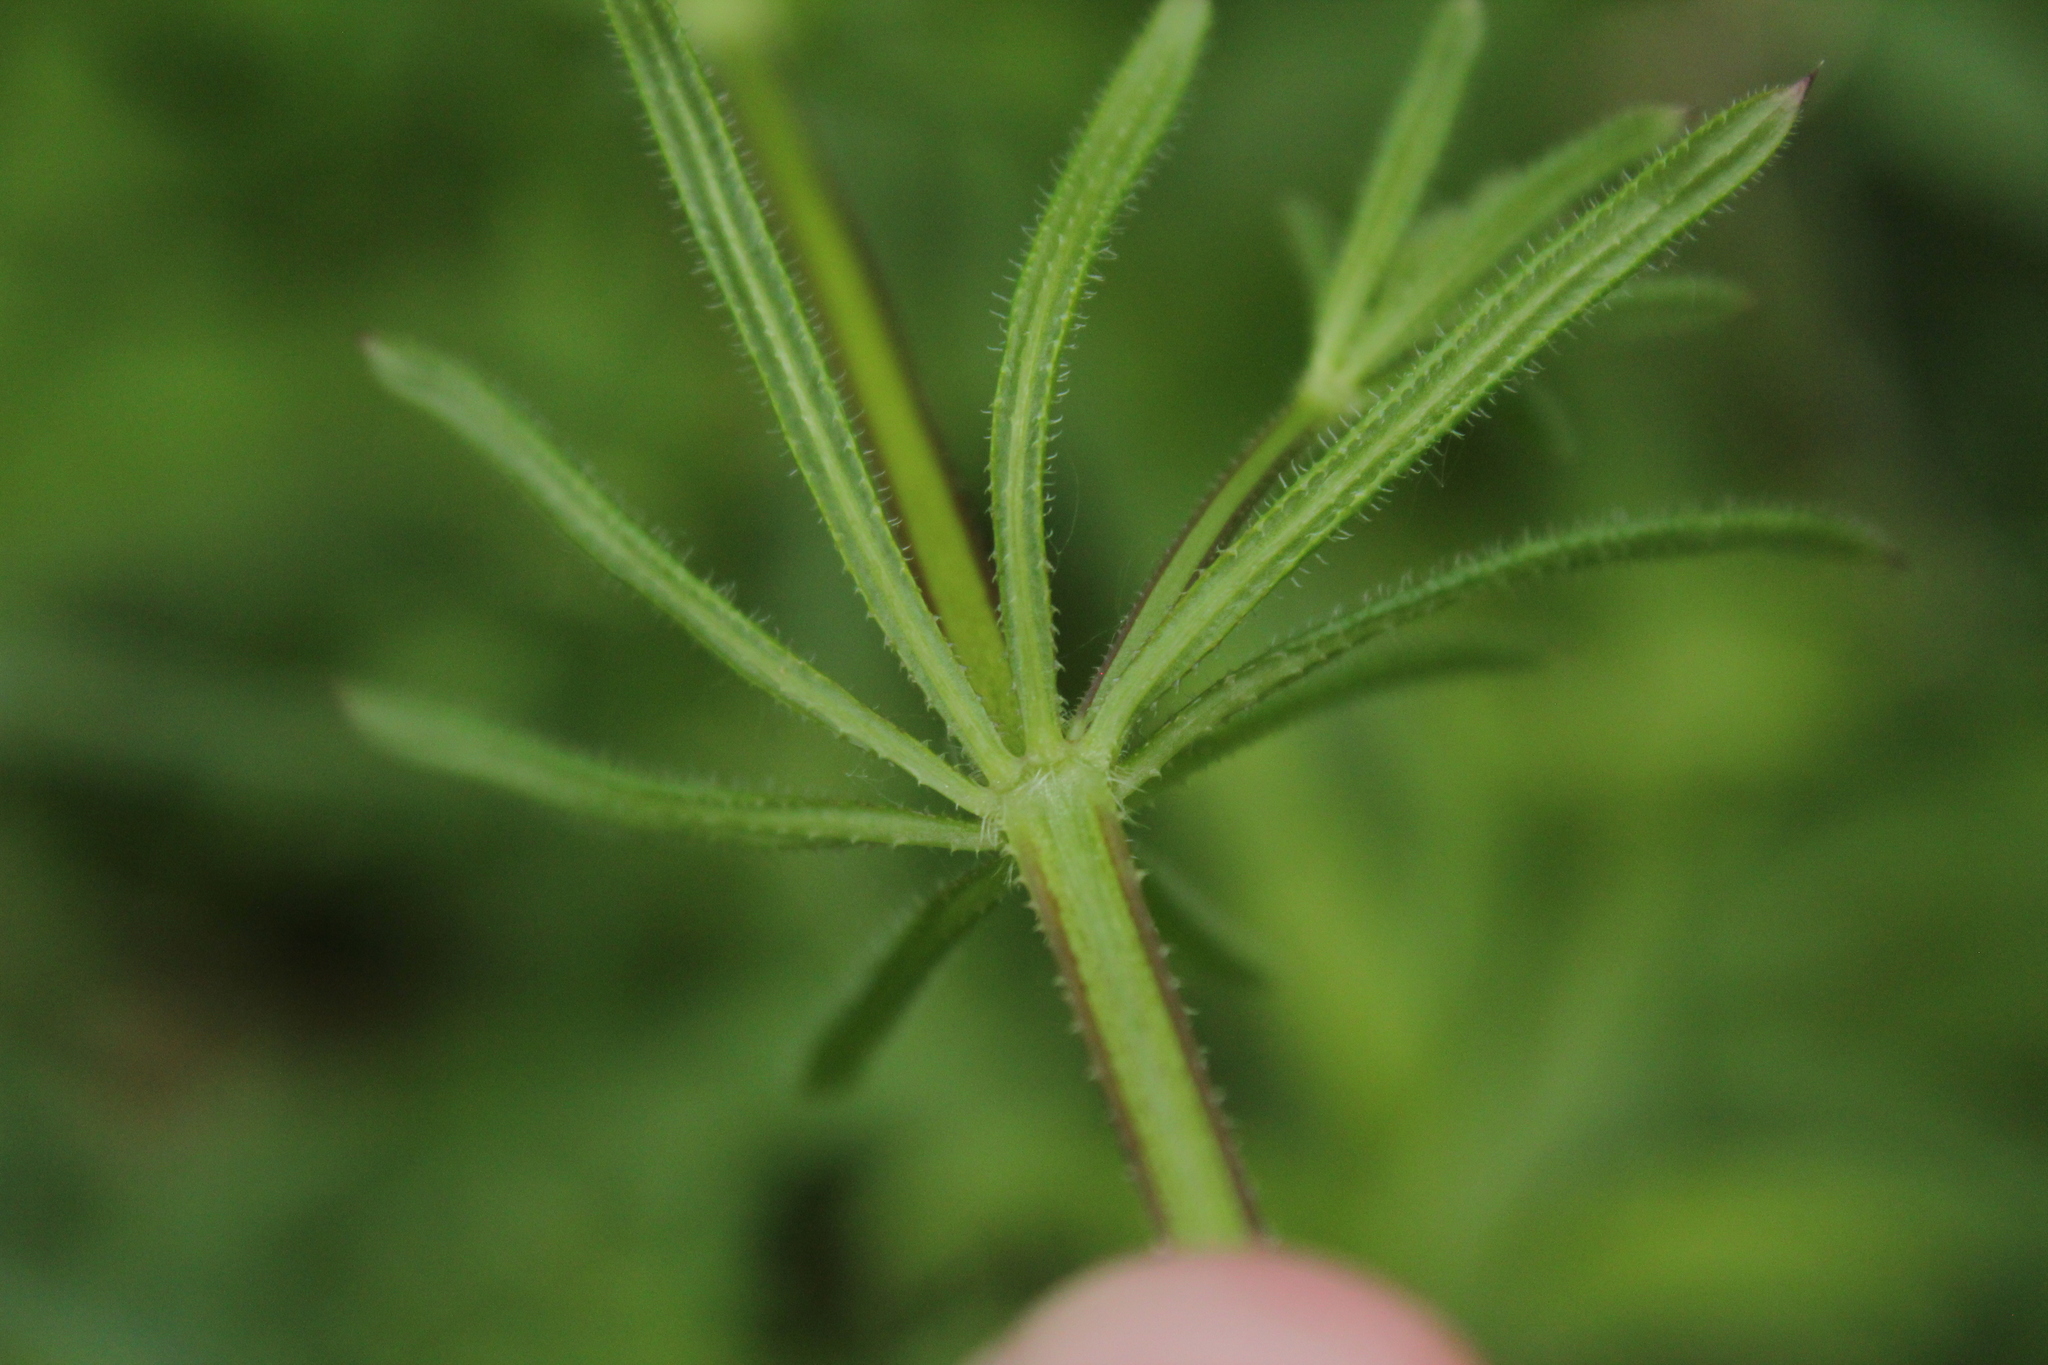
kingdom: Plantae
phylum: Tracheophyta
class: Magnoliopsida
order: Gentianales
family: Rubiaceae
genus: Galium
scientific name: Galium aparine
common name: Cleavers
